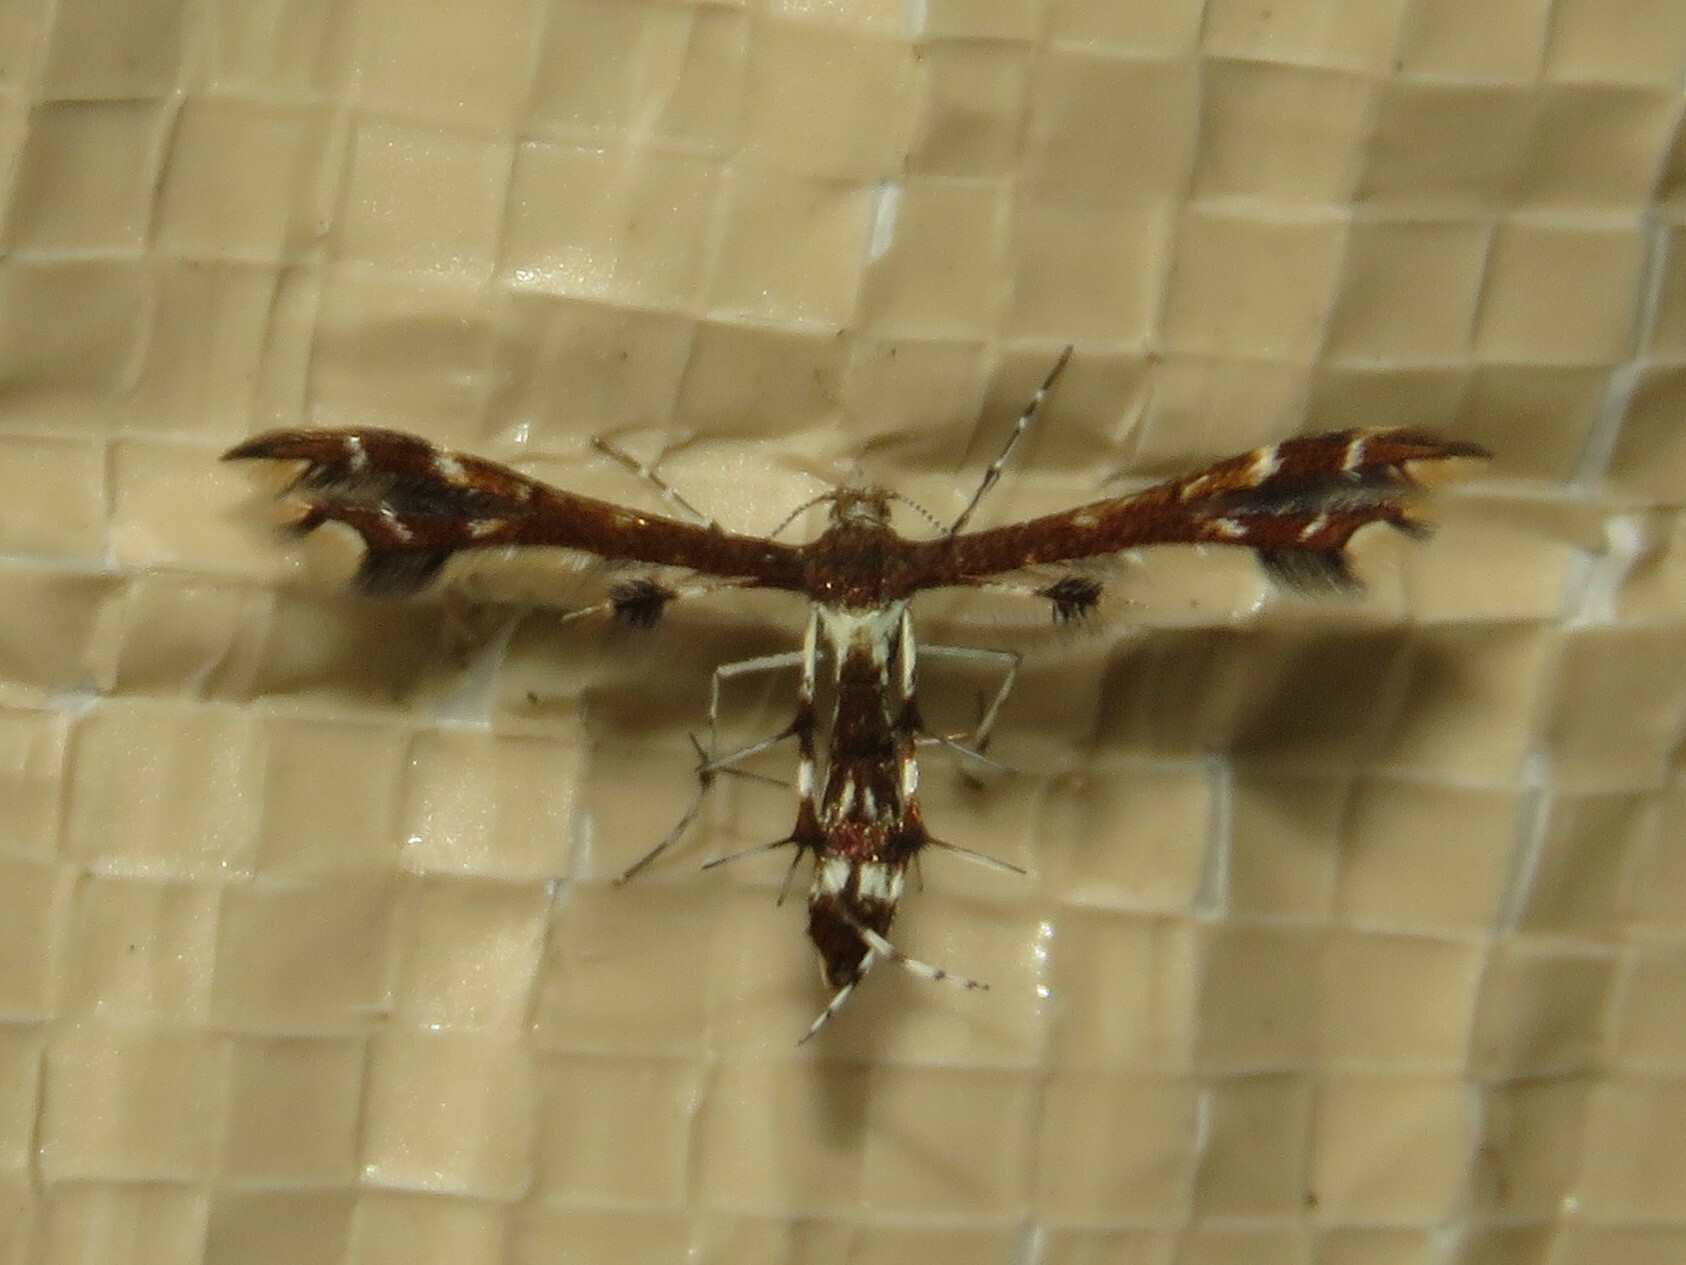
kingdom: Animalia
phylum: Arthropoda
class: Insecta
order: Lepidoptera
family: Pterophoridae
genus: Geina
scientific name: Geina
